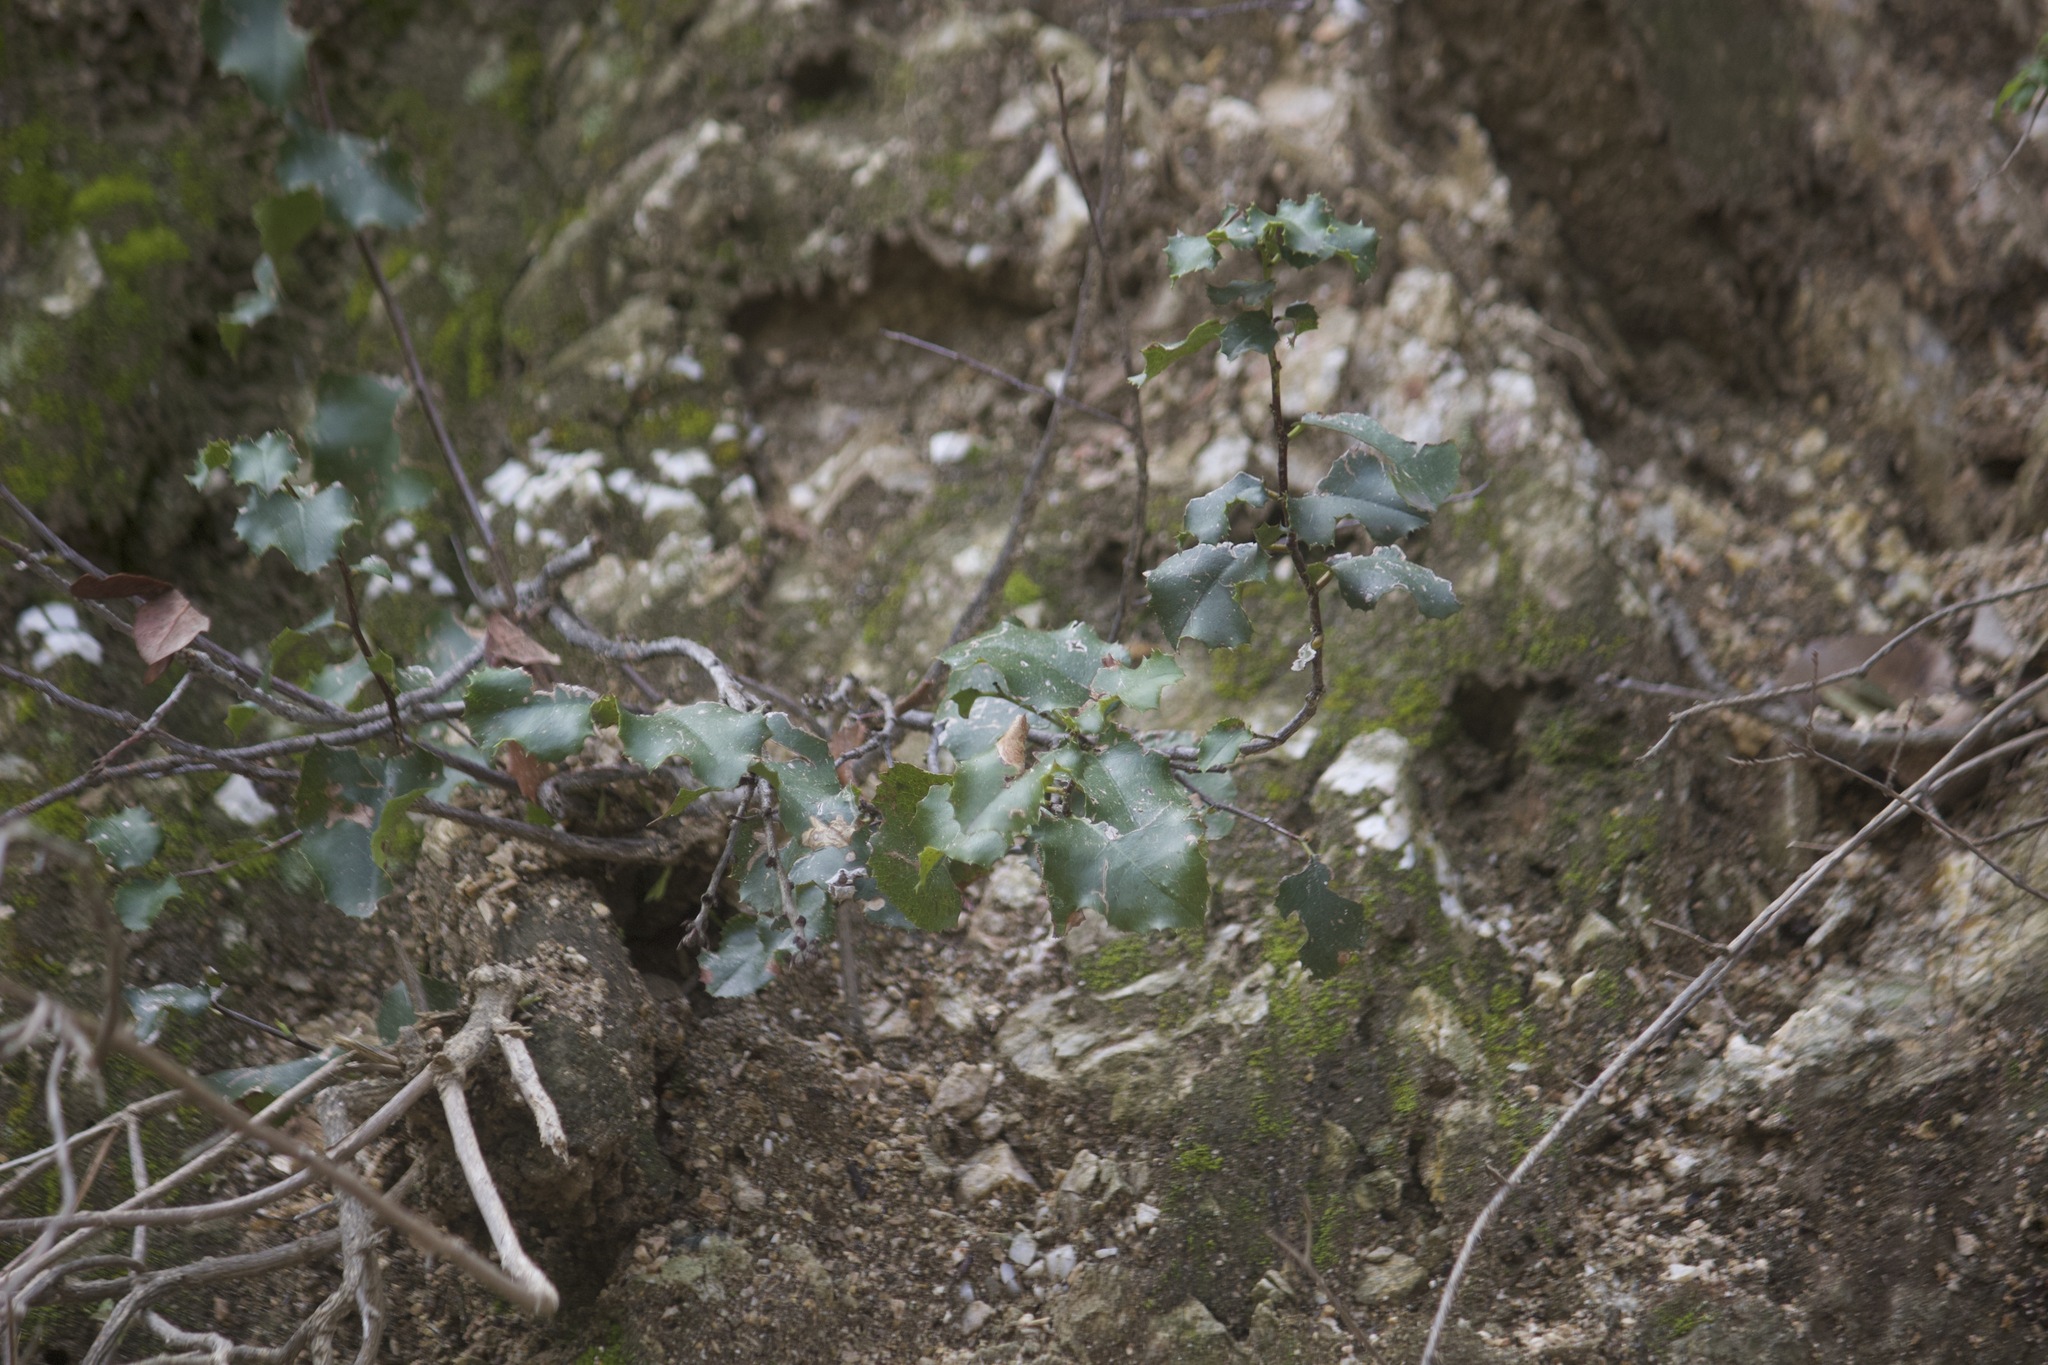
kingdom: Plantae
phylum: Tracheophyta
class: Magnoliopsida
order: Rosales
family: Rosaceae
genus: Prunus
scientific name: Prunus ilicifolia
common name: Hollyleaf cherry
